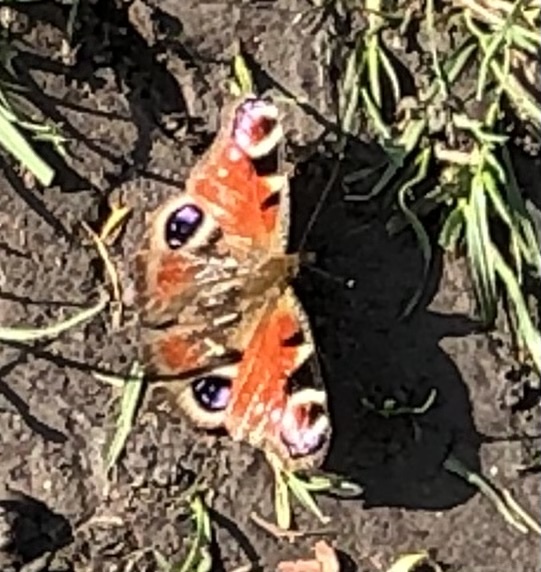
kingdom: Animalia
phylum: Arthropoda
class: Insecta
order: Lepidoptera
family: Nymphalidae
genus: Aglais
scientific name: Aglais io
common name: Peacock
